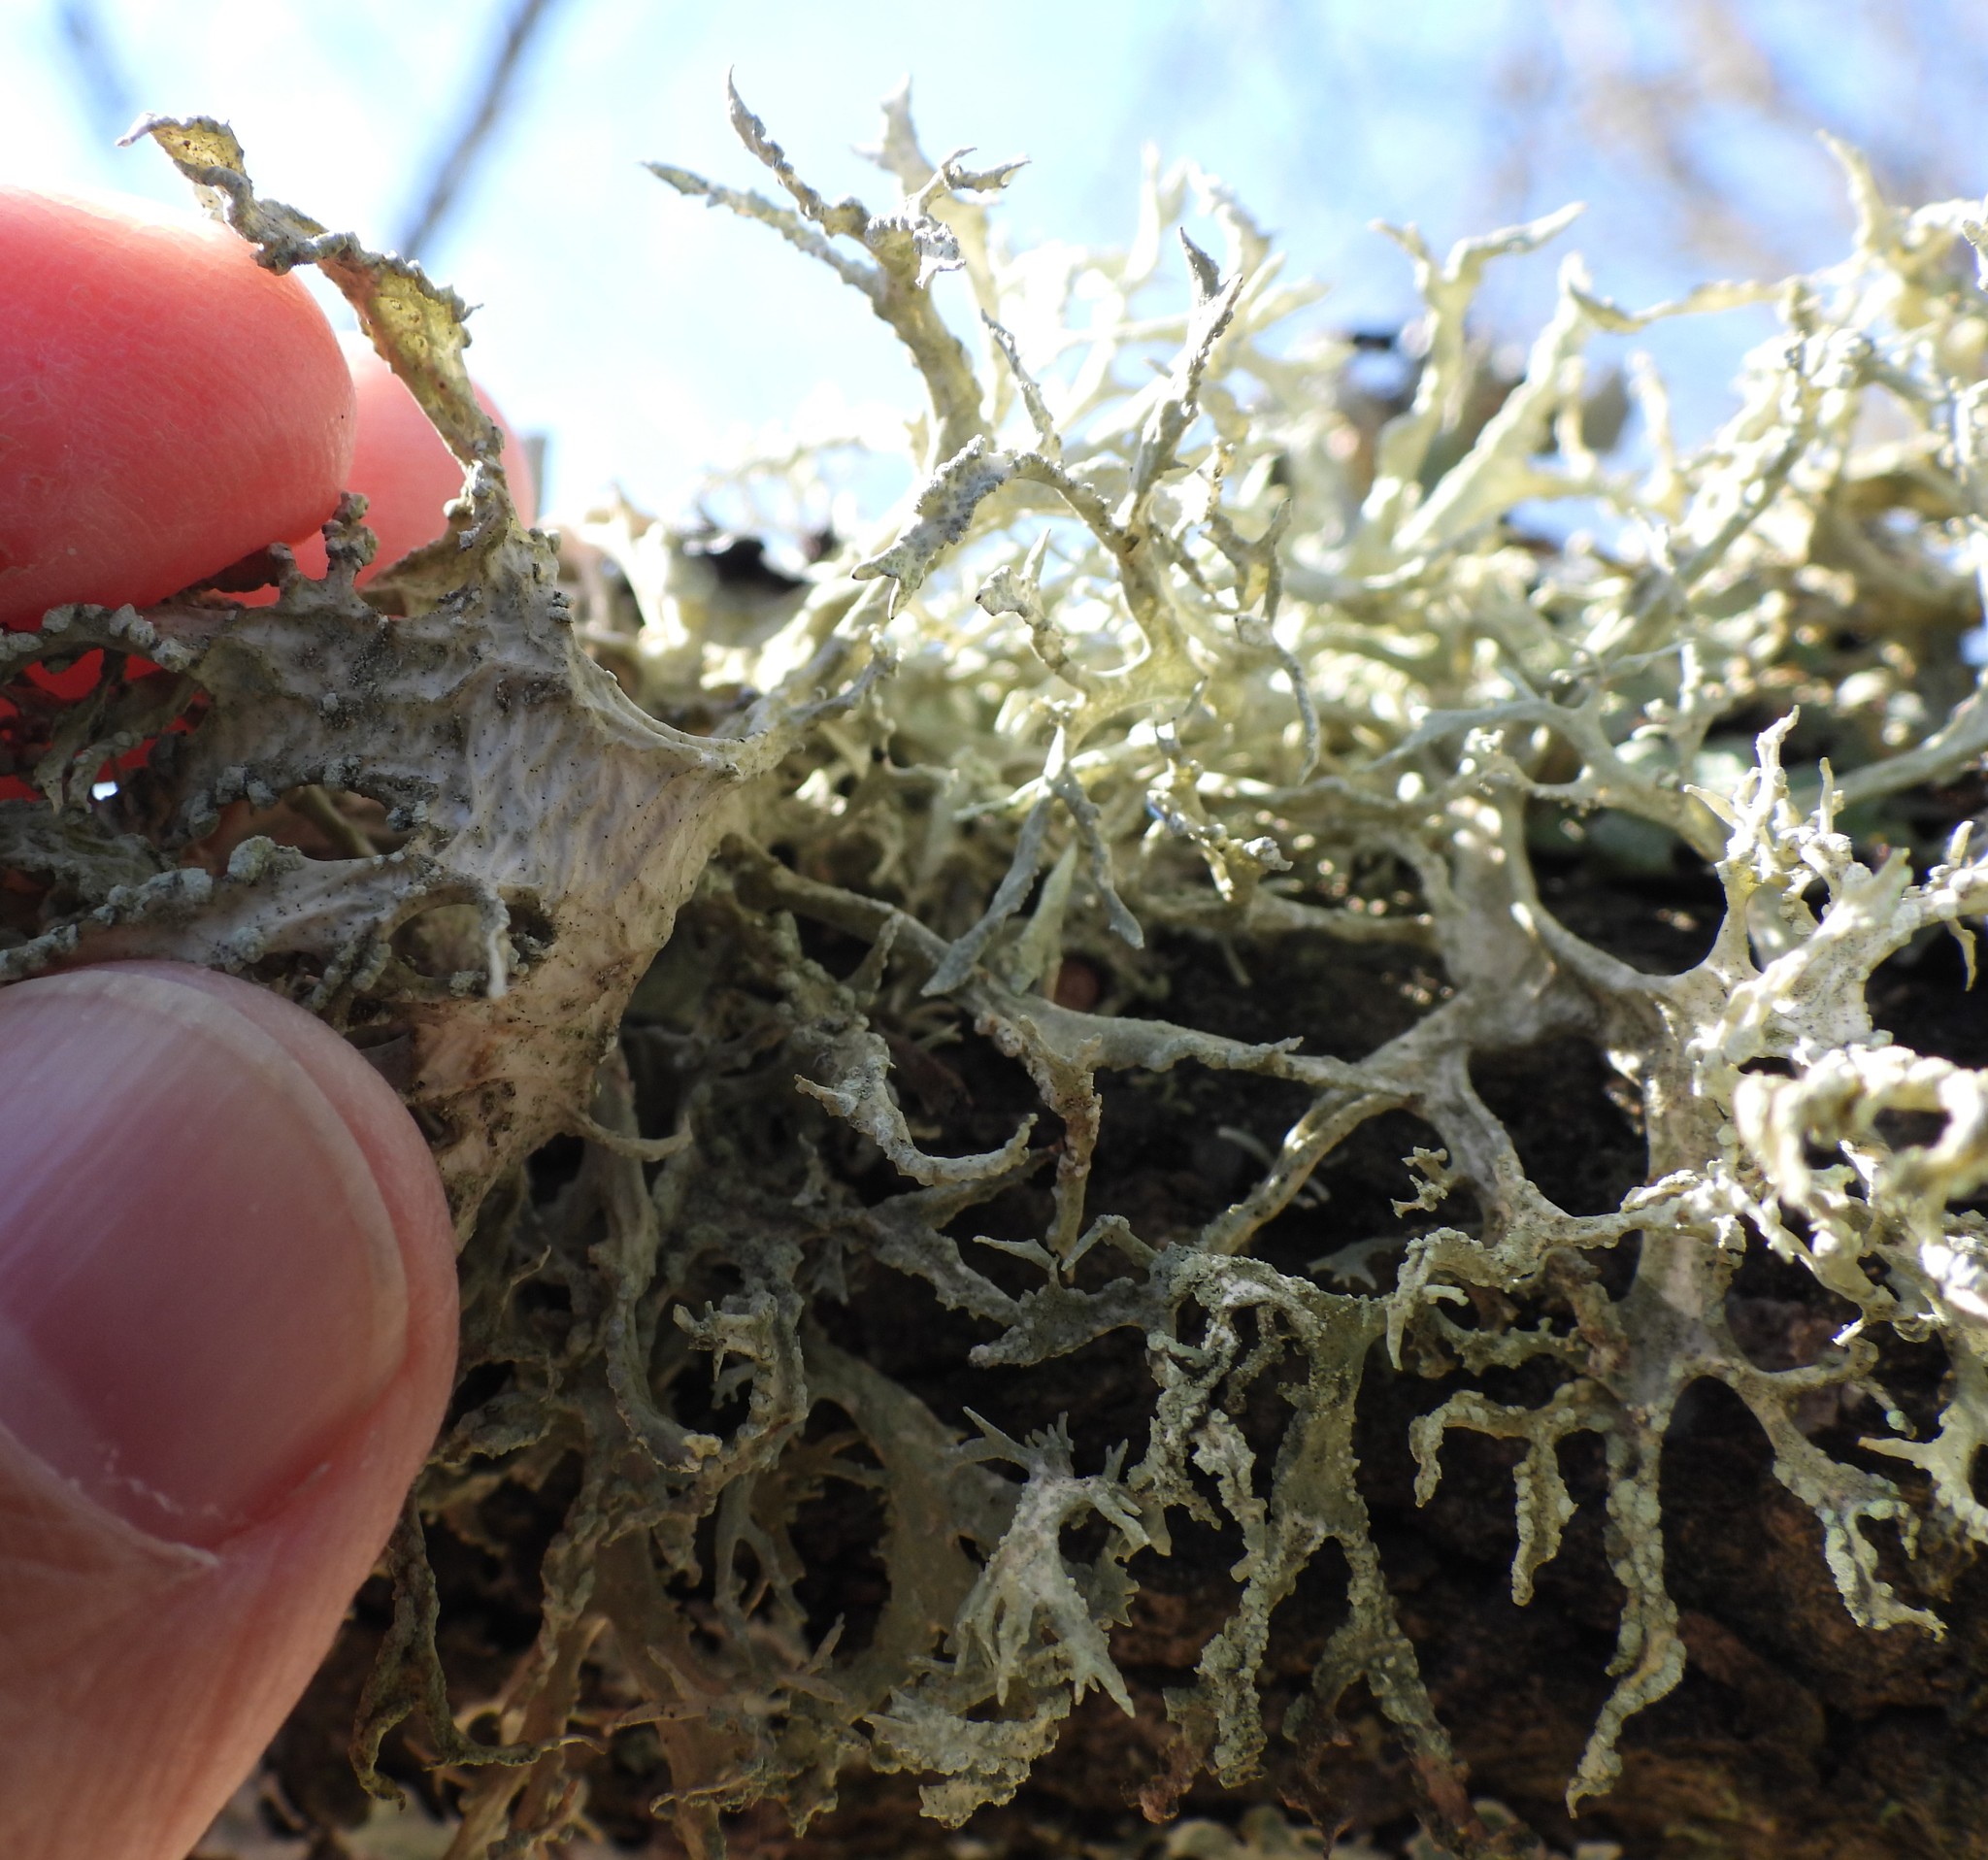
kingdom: Fungi
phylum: Ascomycota
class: Lecanoromycetes
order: Lecanorales
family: Parmeliaceae
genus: Evernia
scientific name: Evernia prunastri
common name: Oak moss
